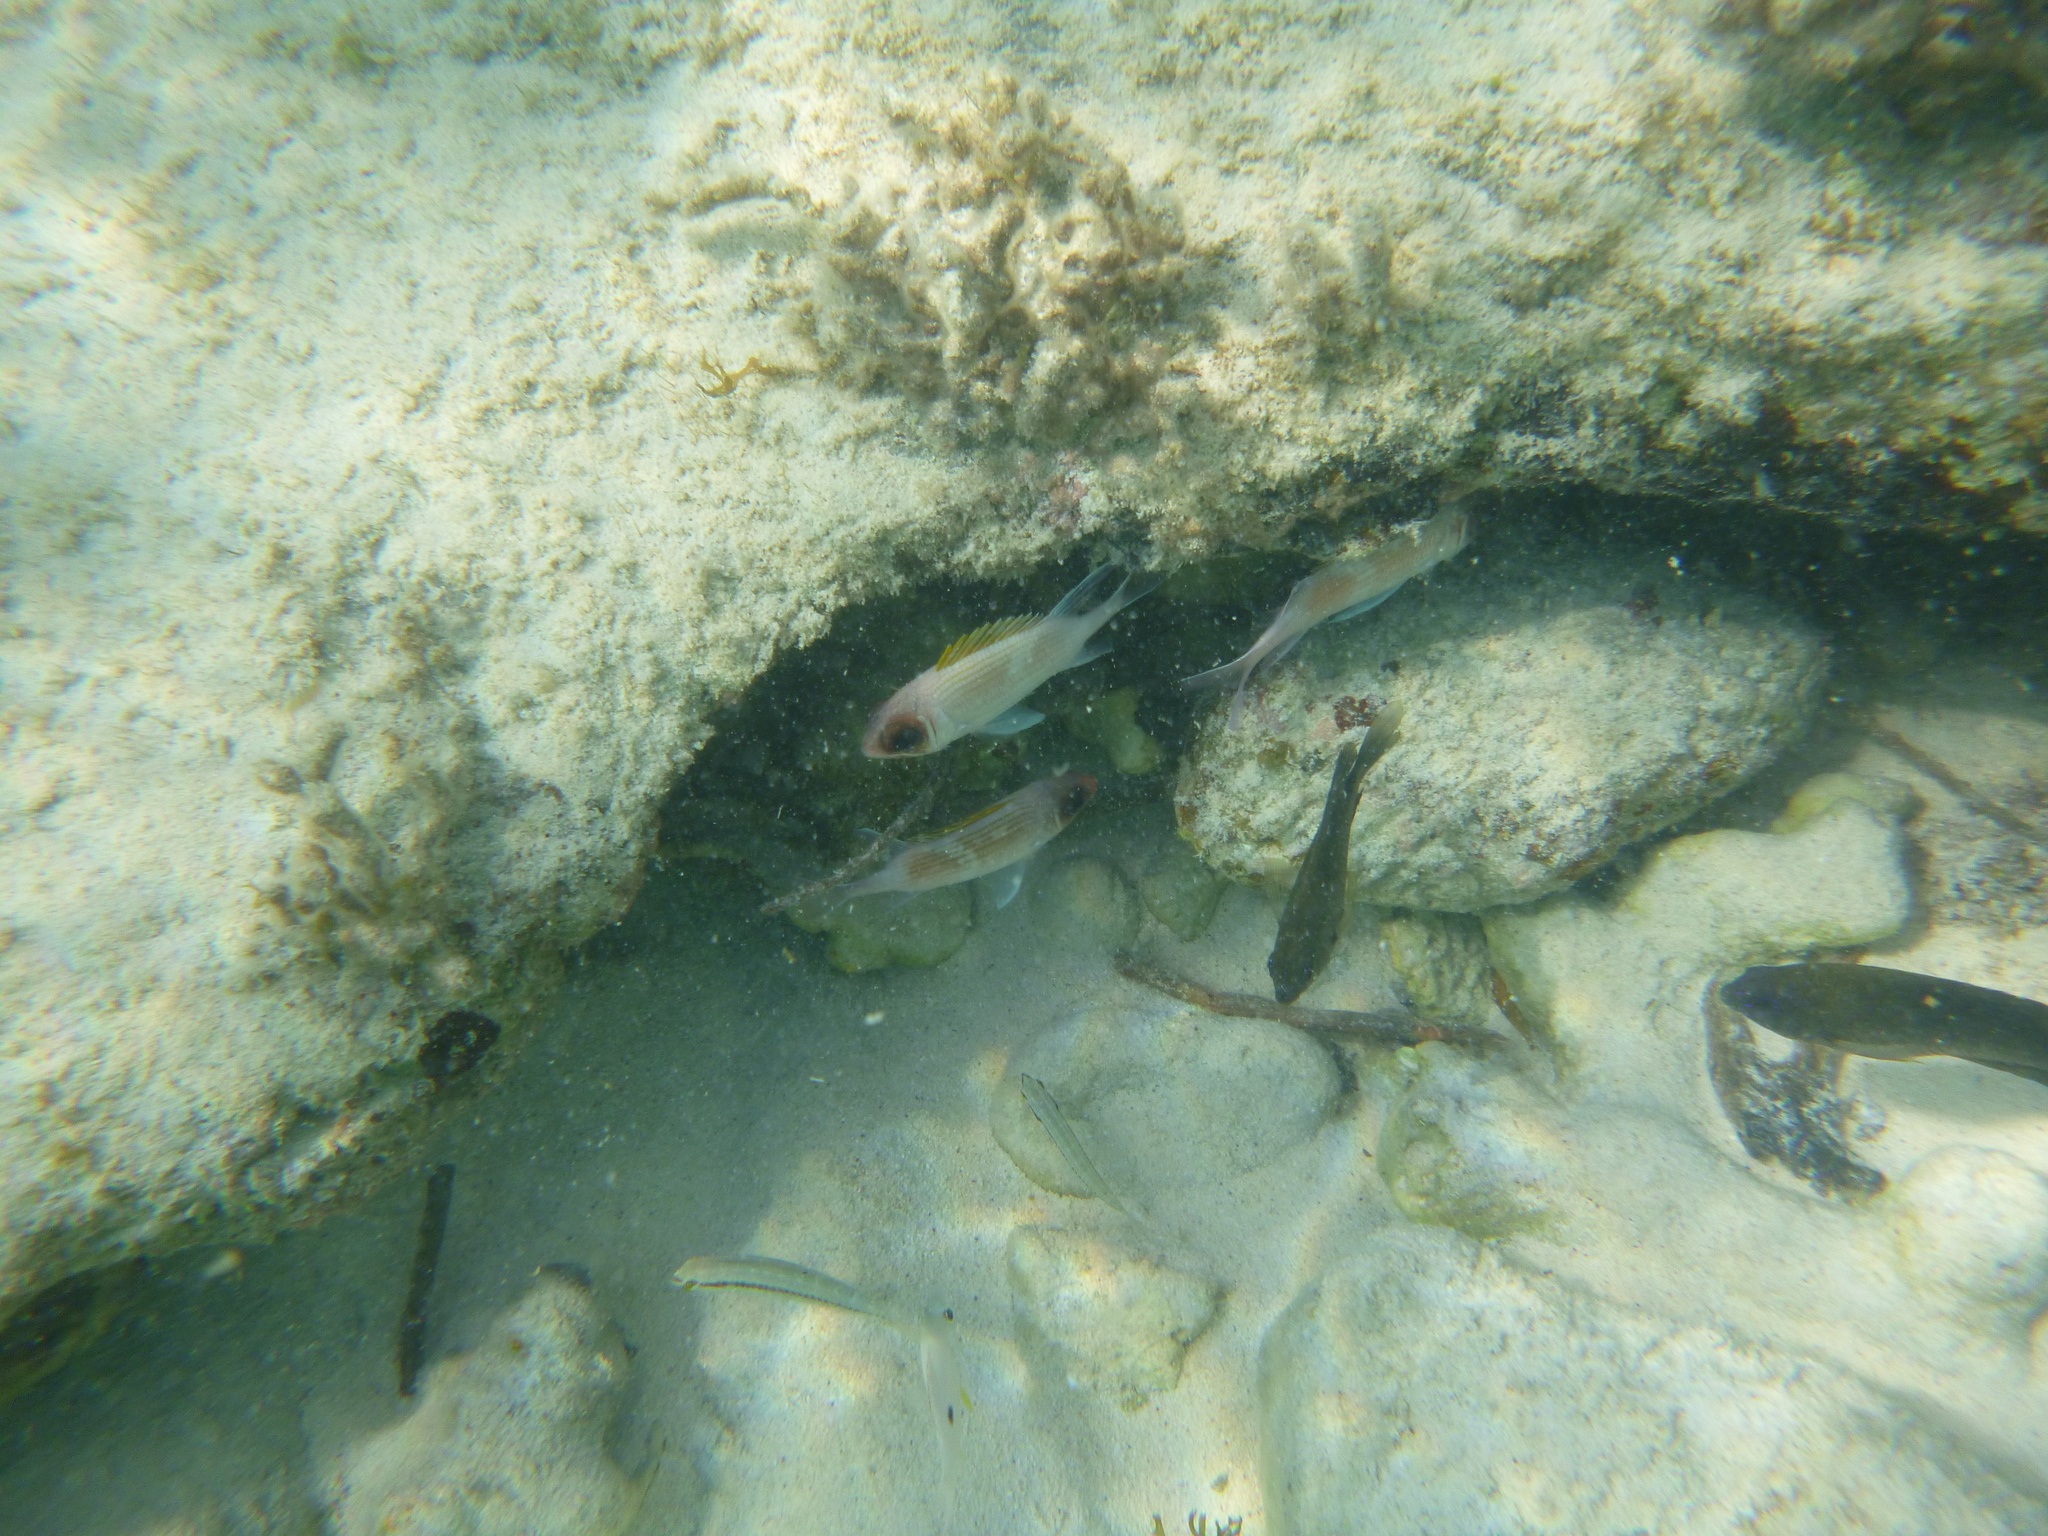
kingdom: Animalia
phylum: Chordata
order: Beryciformes
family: Holocentridae
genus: Holocentrus
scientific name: Holocentrus adscensionis
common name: Squirrelfish
